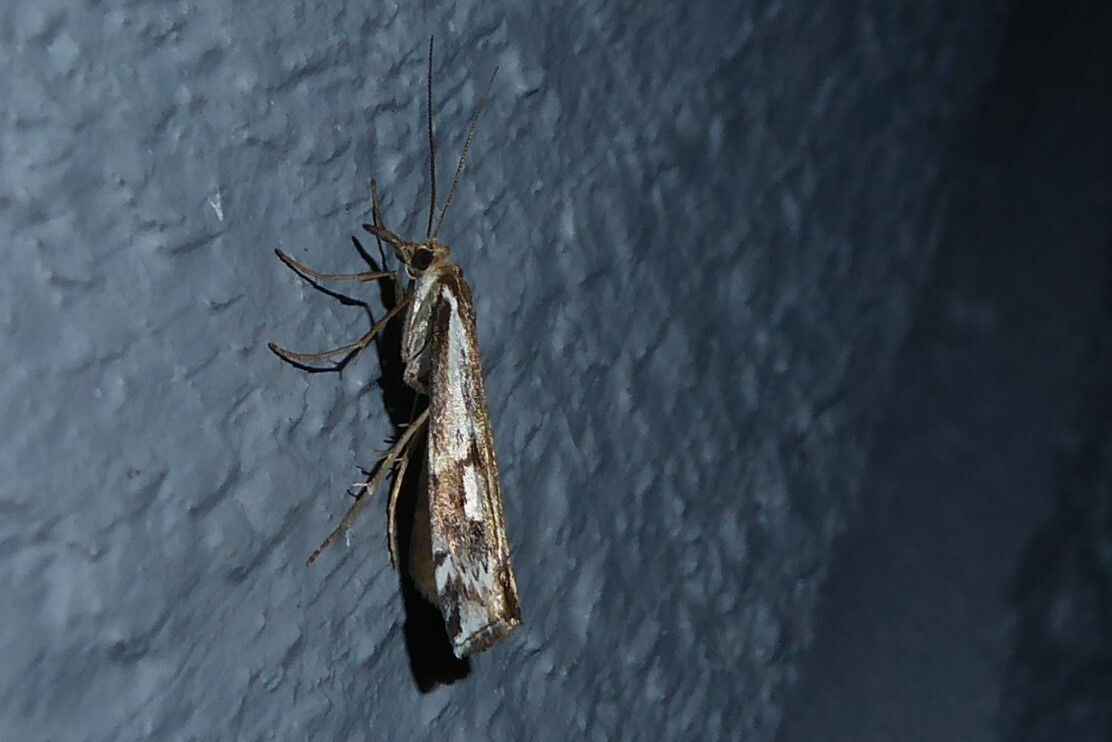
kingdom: Animalia
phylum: Arthropoda
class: Insecta
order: Lepidoptera
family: Crambidae
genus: Orocrambus
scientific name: Orocrambus vulgaris
